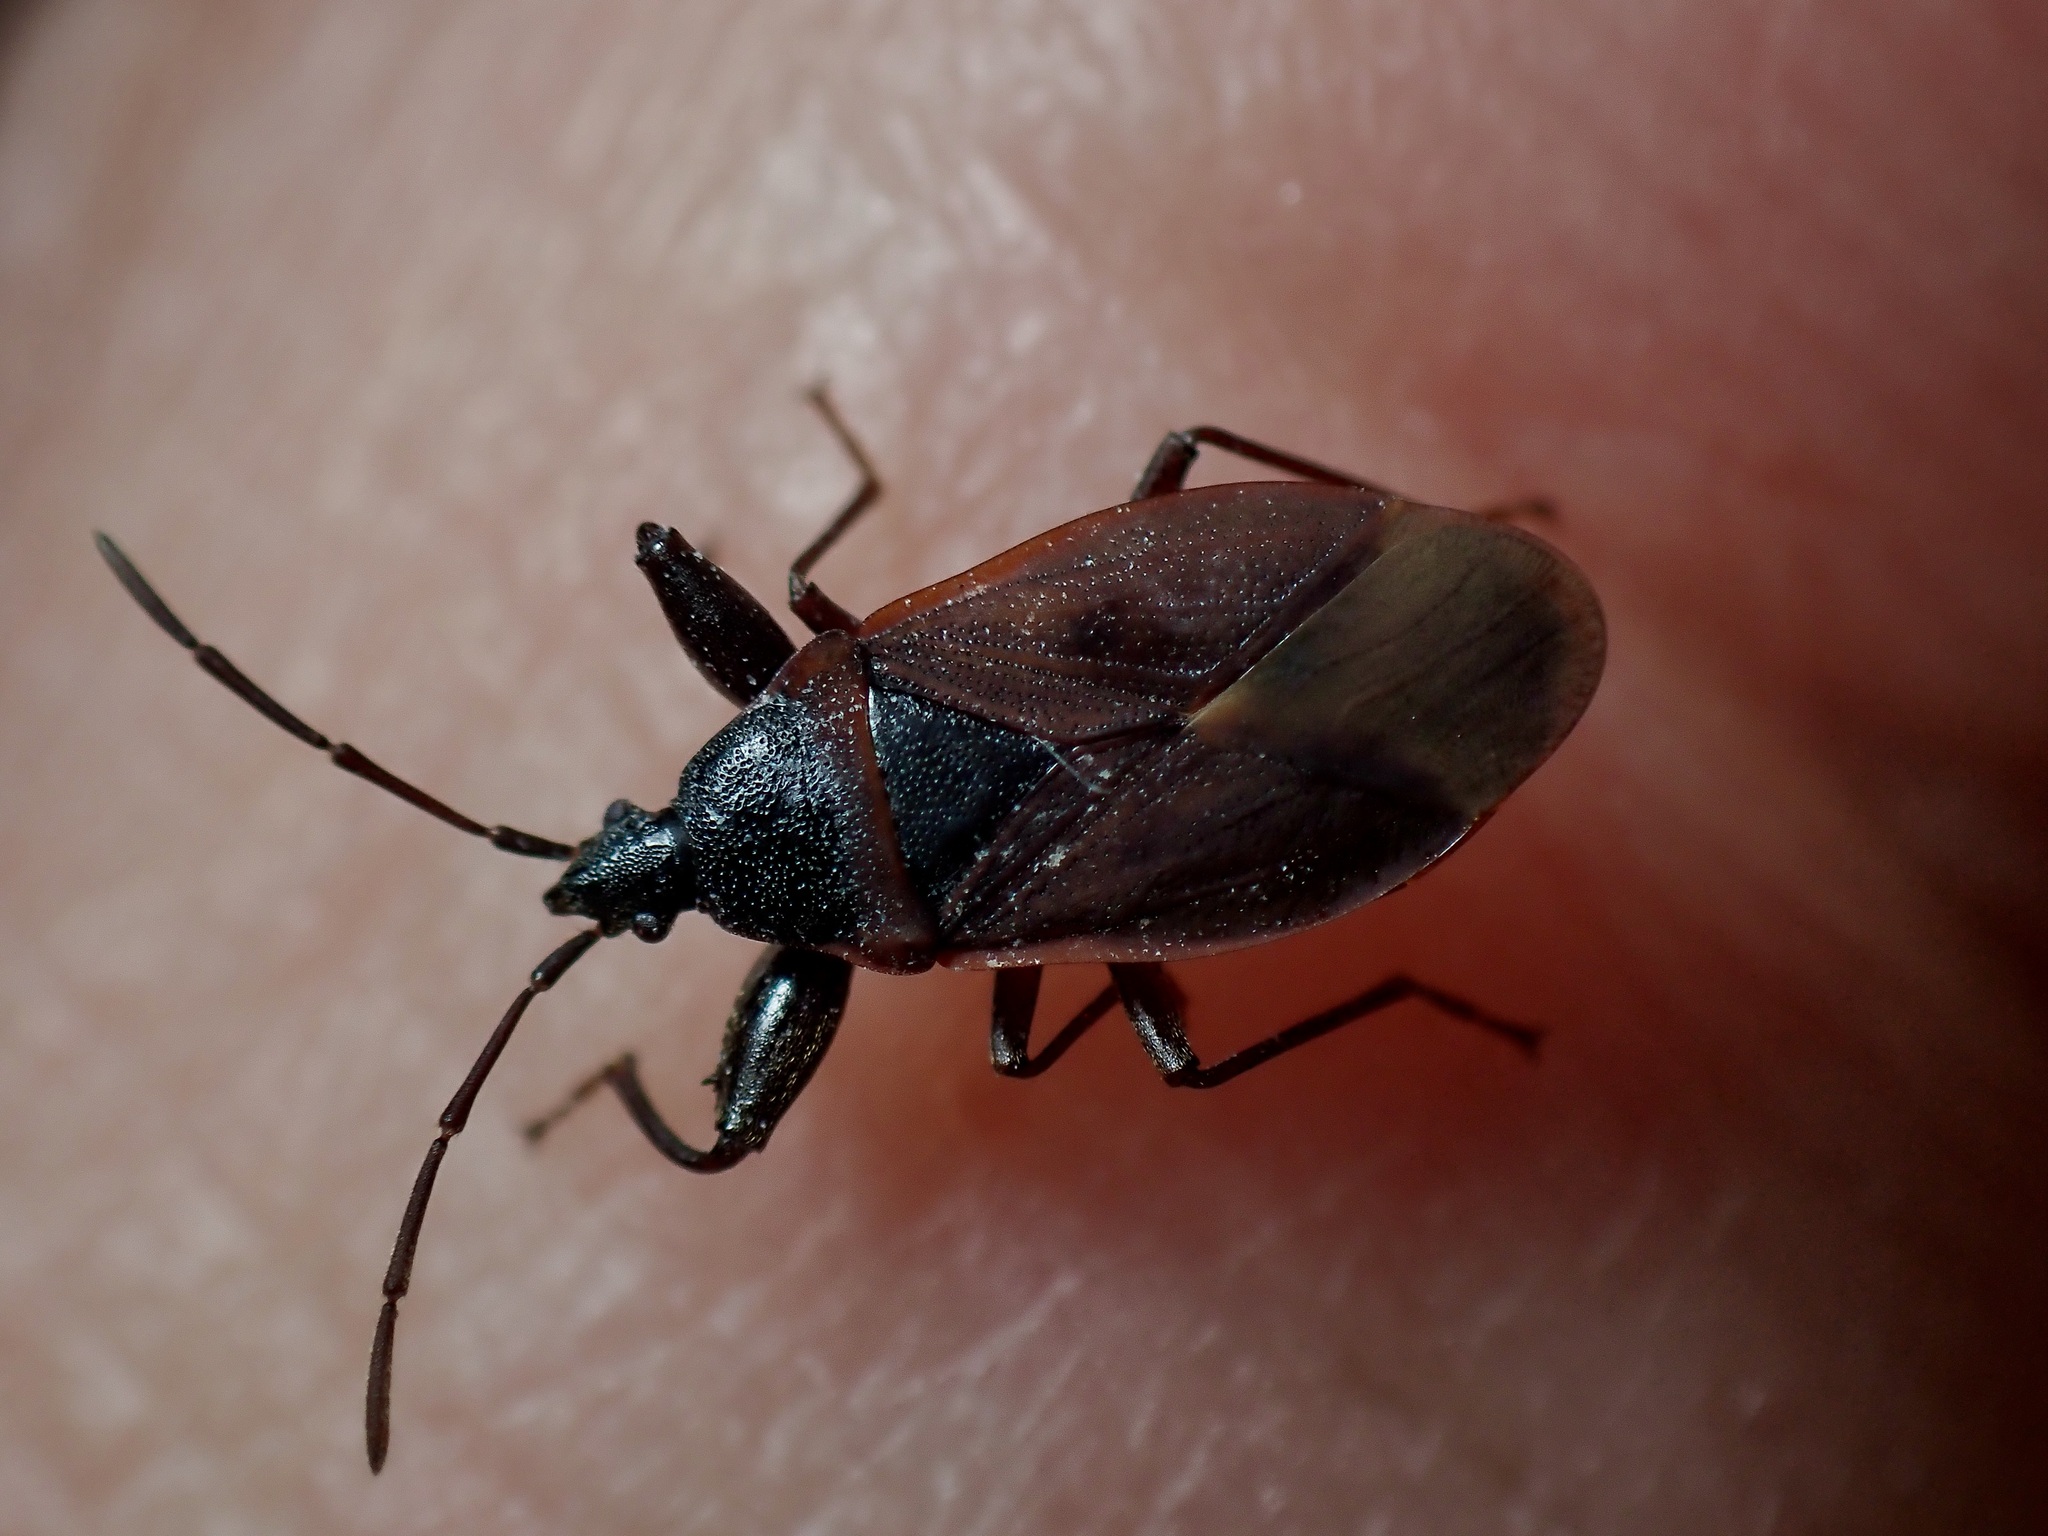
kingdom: Animalia
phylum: Arthropoda
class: Insecta
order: Hemiptera
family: Rhyparochromidae
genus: Gastrodes
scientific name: Gastrodes grossipes
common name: Pine cone bug
